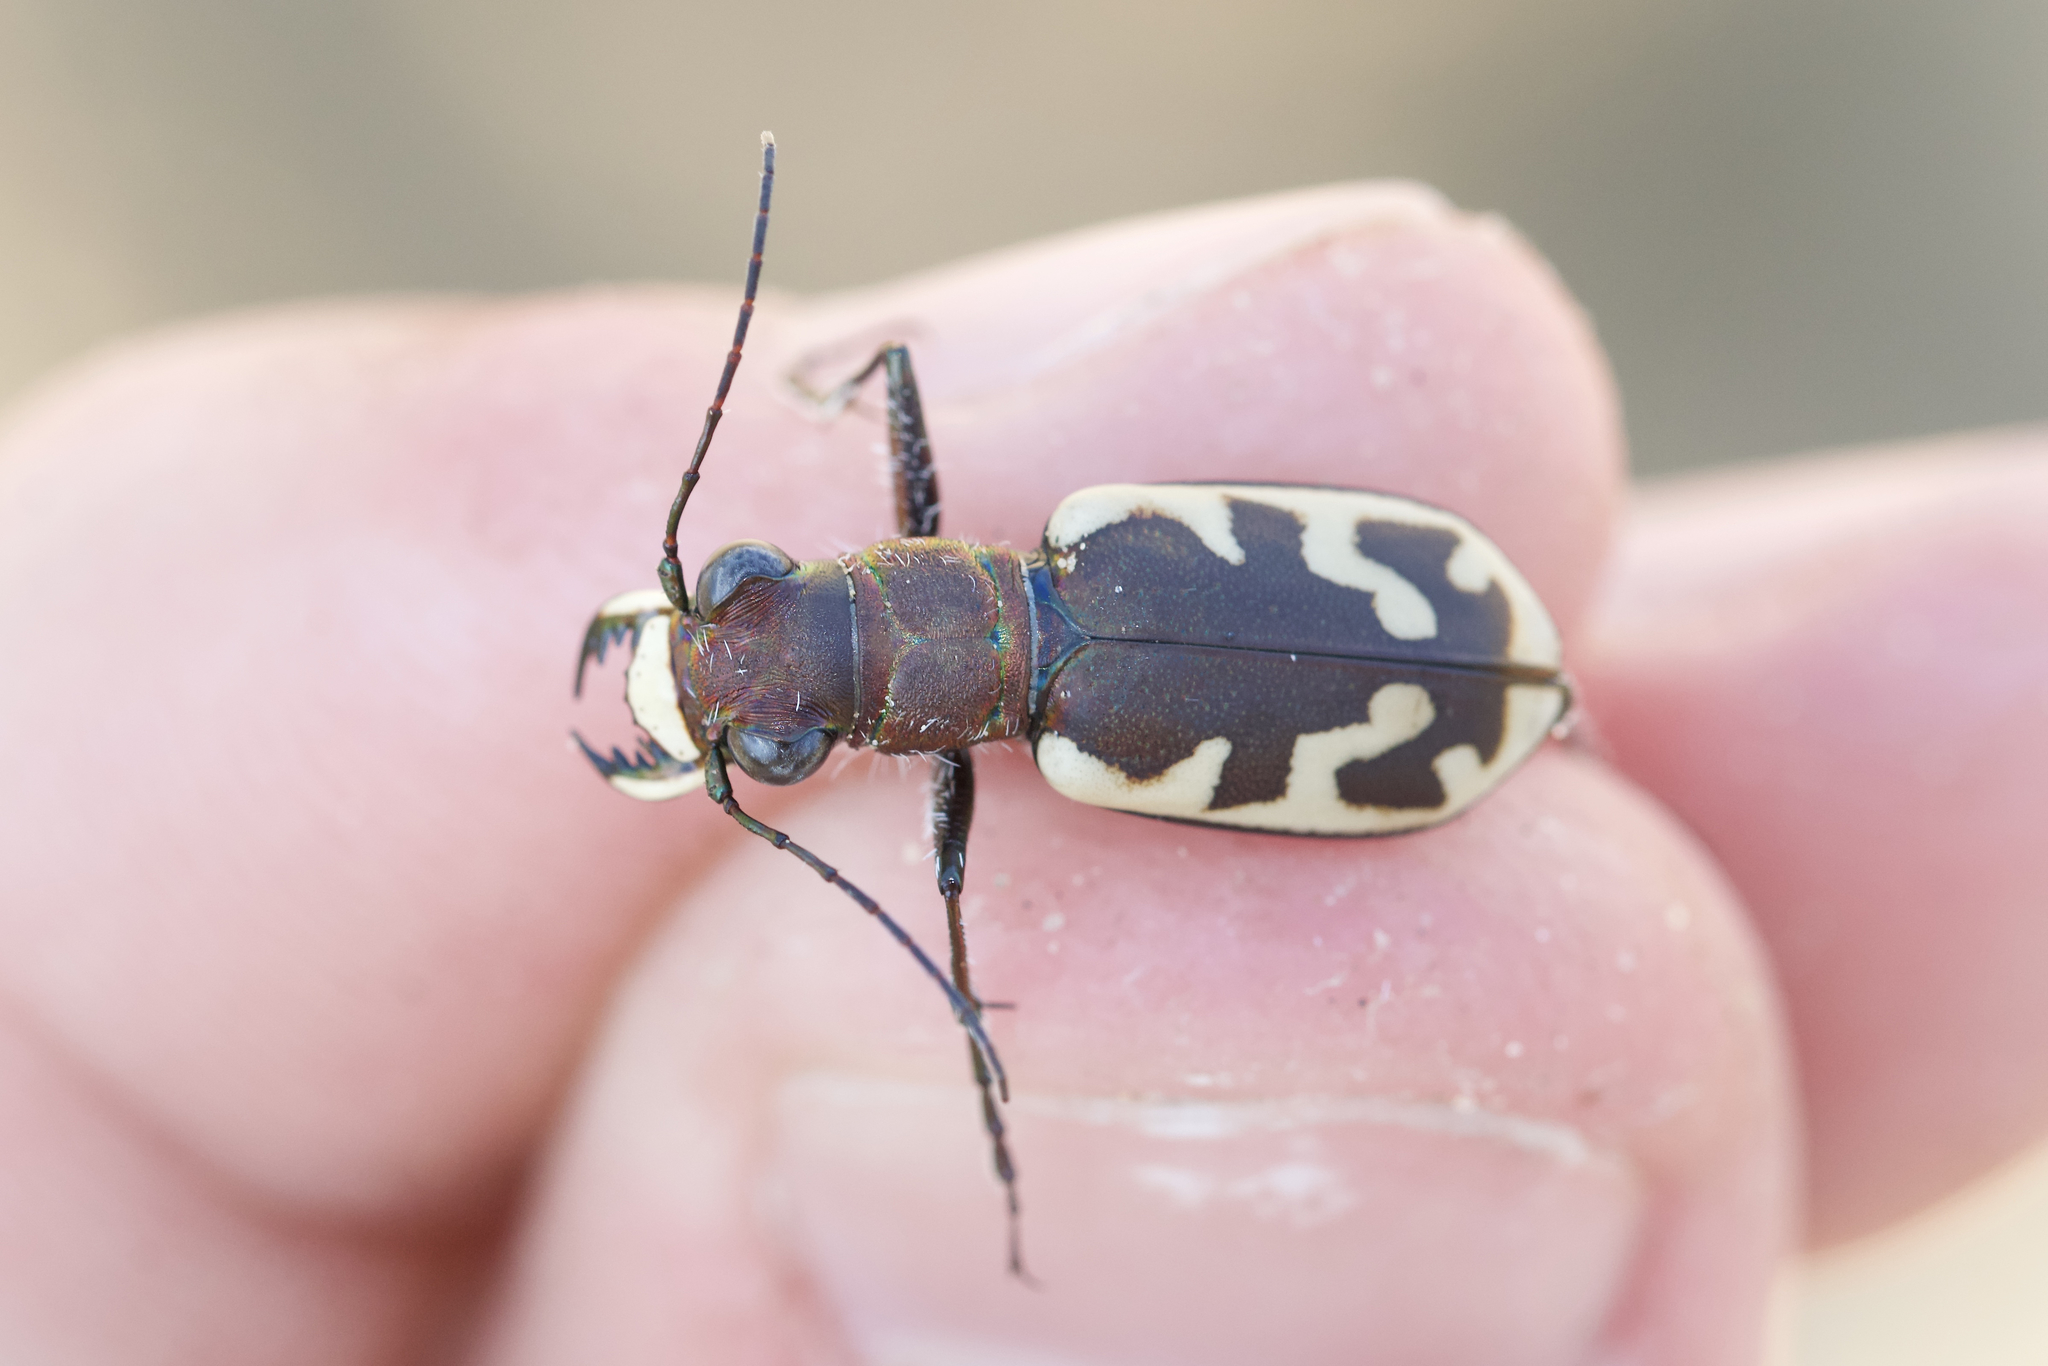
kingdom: Animalia
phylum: Arthropoda
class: Insecta
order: Coleoptera
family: Carabidae
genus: Cicindela
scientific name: Cicindela formosa
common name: Big sand tiger beetle
